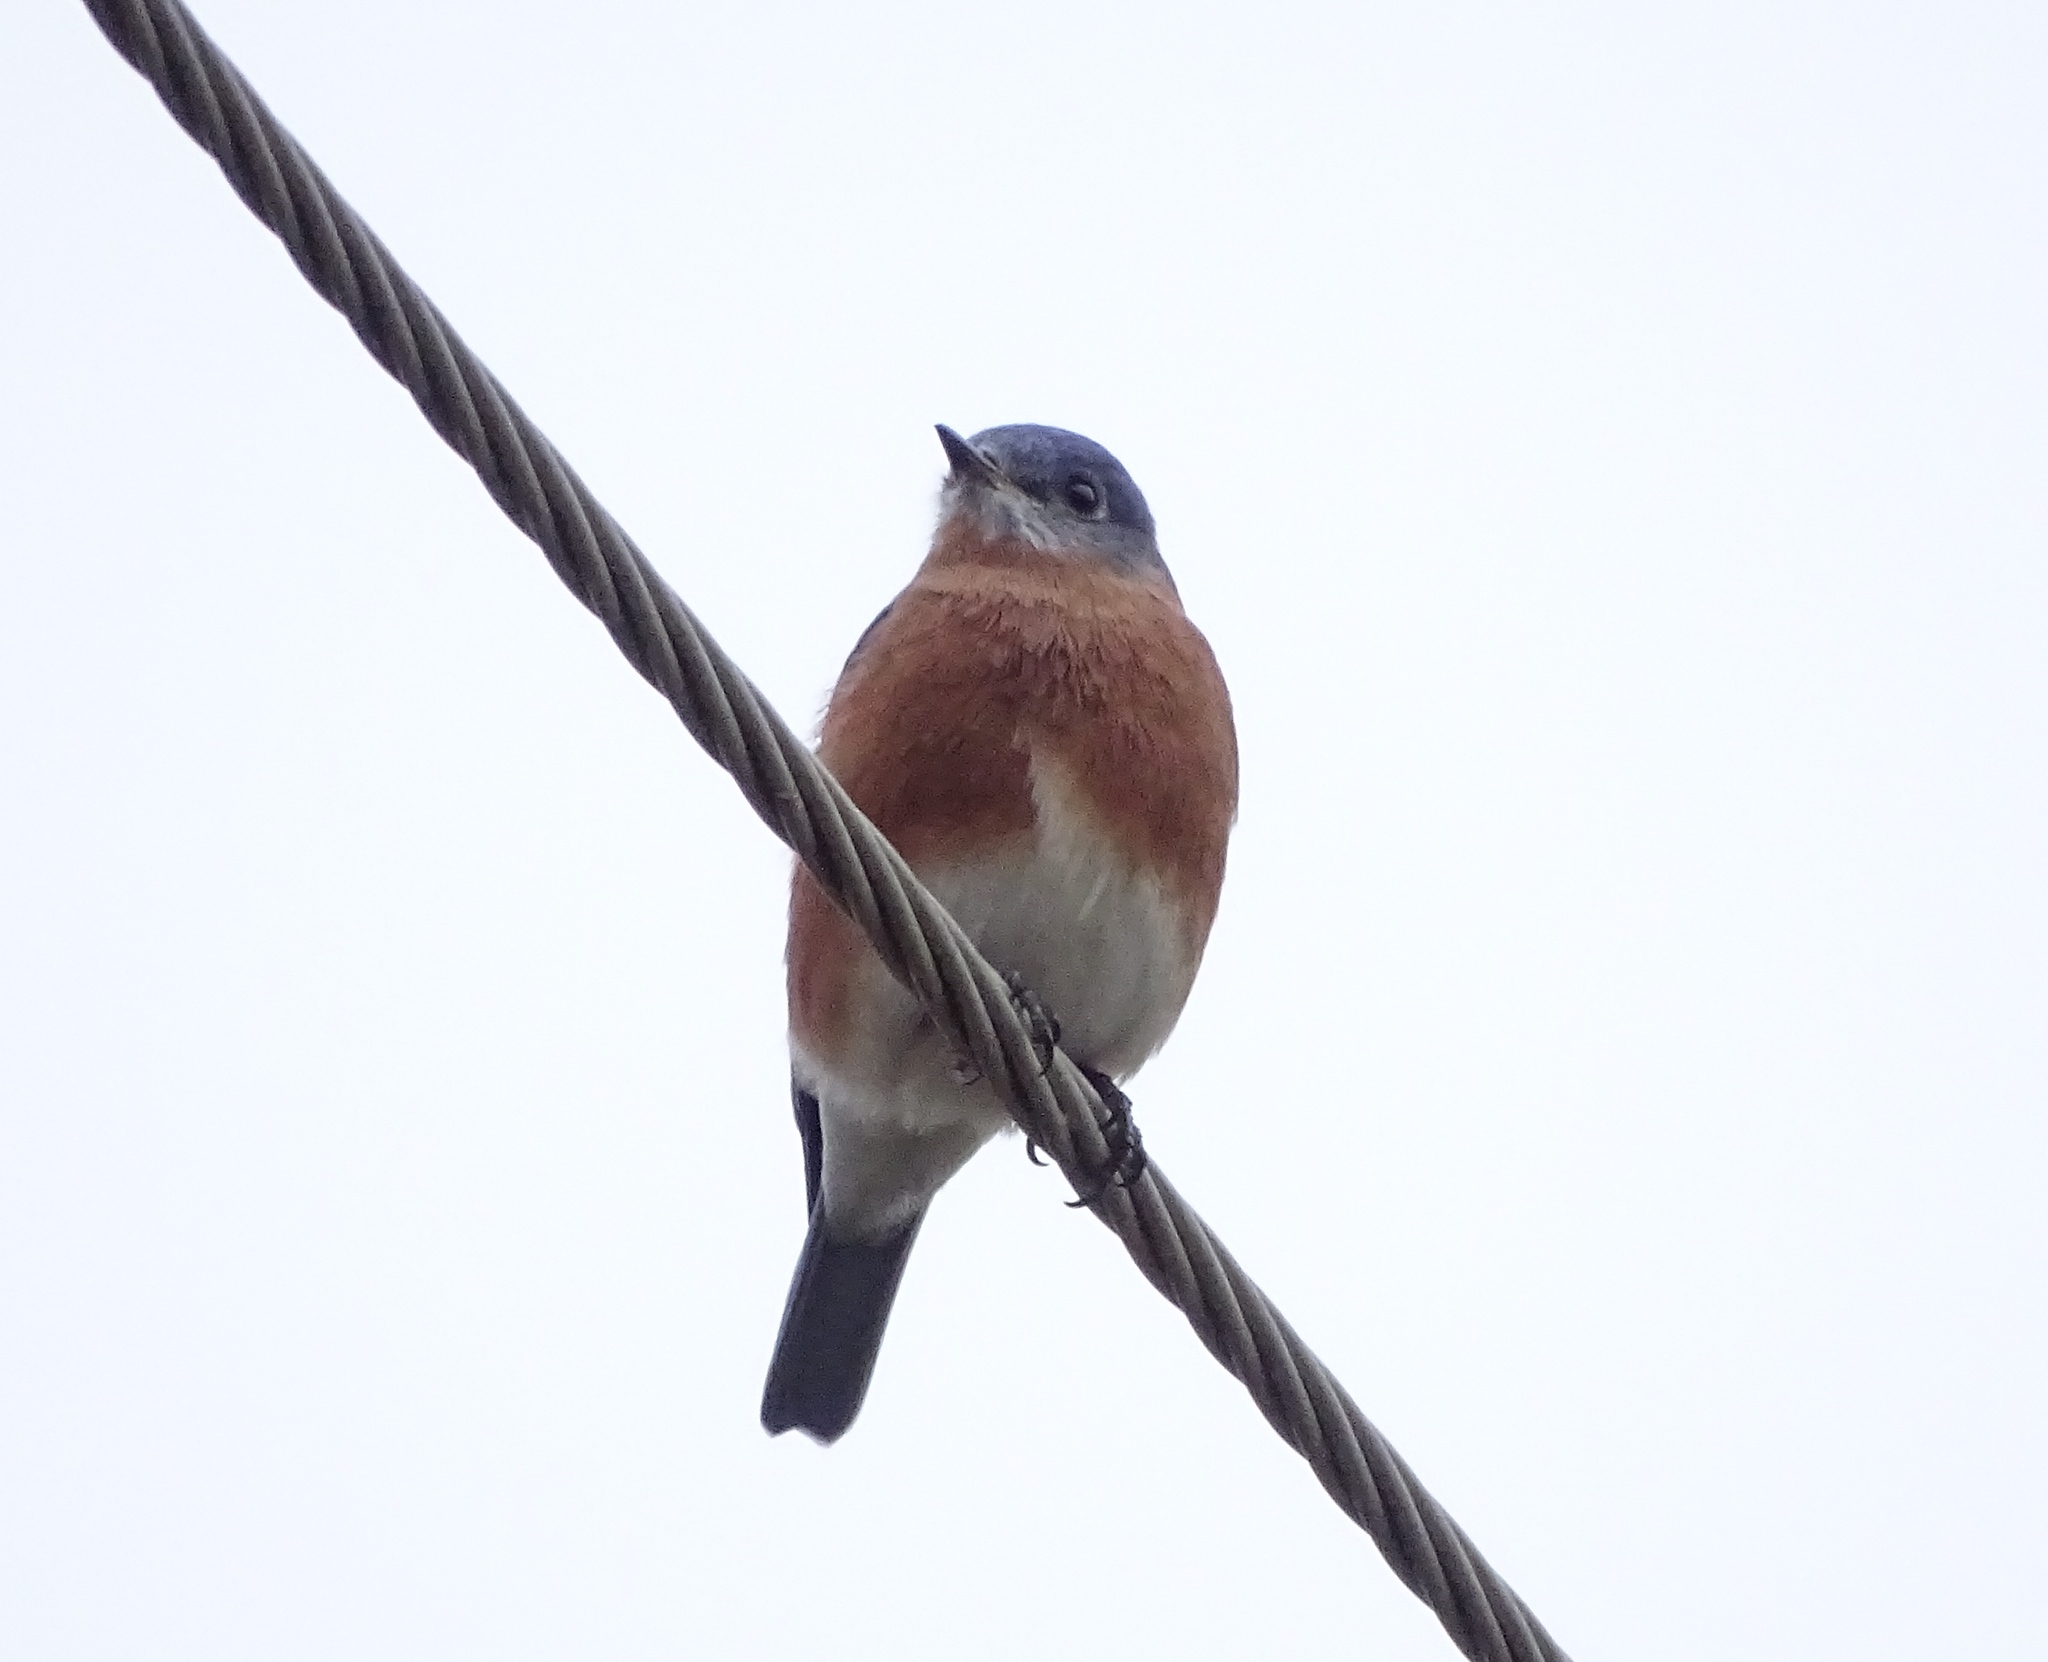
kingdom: Animalia
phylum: Chordata
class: Aves
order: Passeriformes
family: Turdidae
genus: Sialia
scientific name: Sialia sialis
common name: Eastern bluebird
